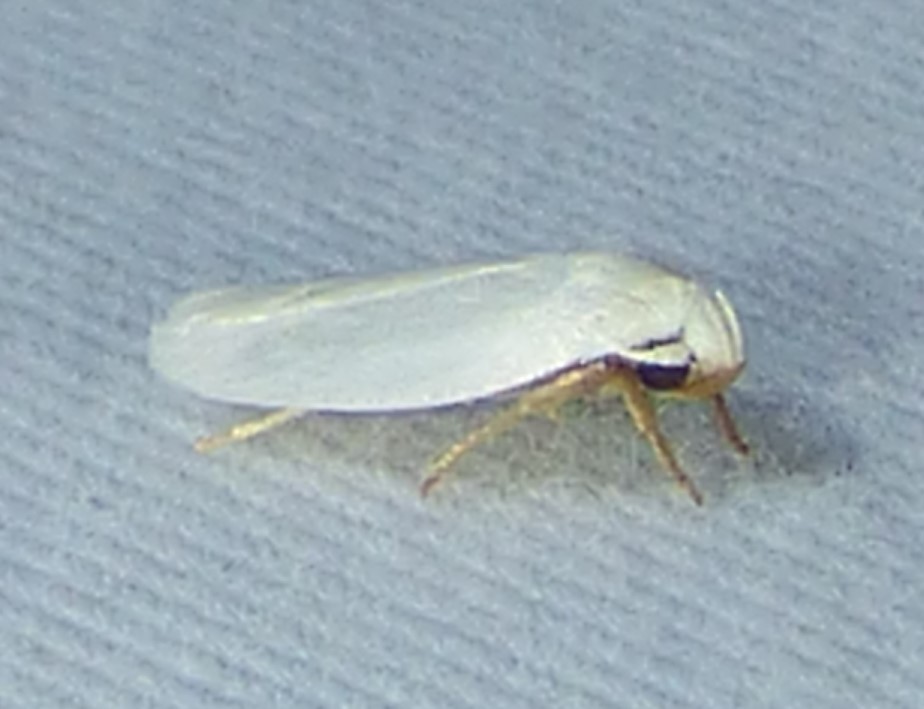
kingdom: Animalia
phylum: Arthropoda
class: Insecta
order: Lepidoptera
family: Depressariidae
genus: Antaeotricha
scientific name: Antaeotricha albulella
